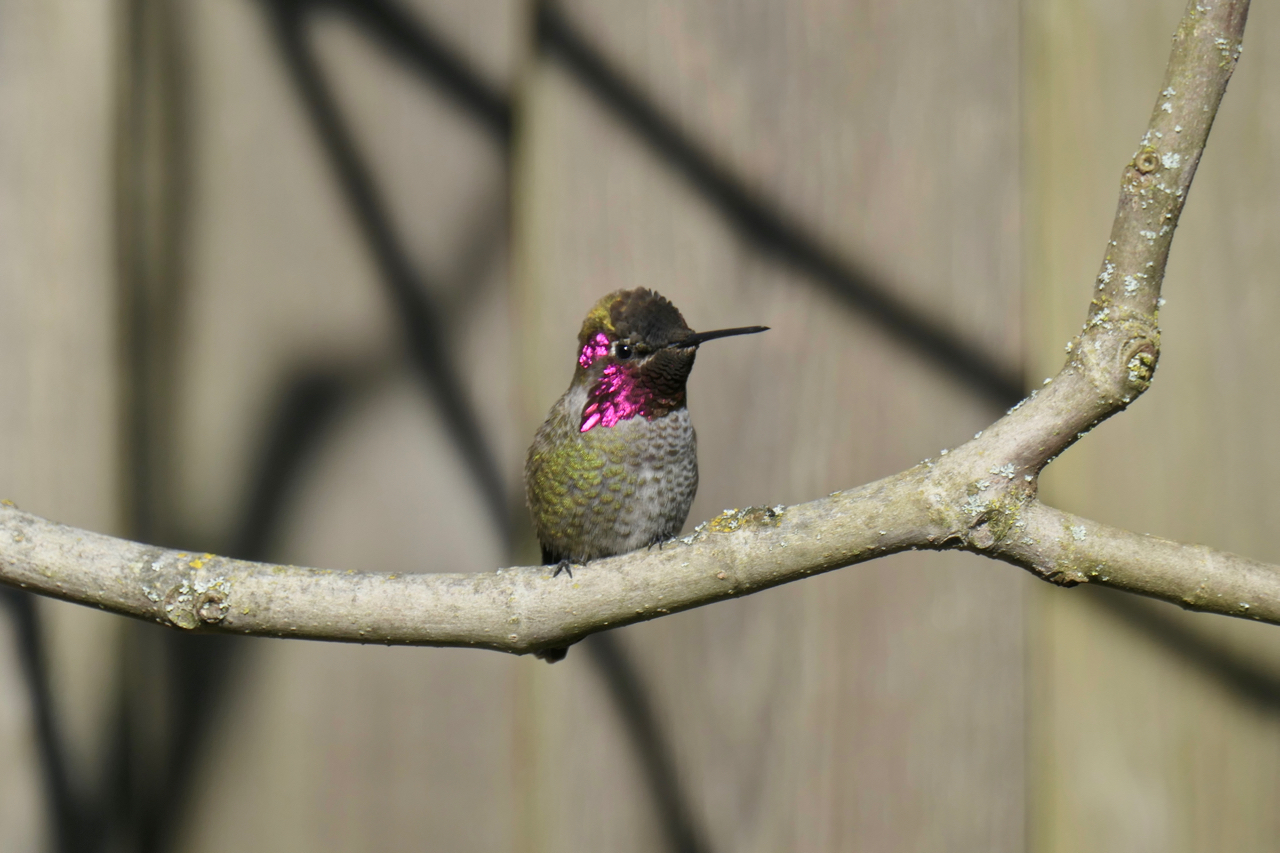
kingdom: Animalia
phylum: Chordata
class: Aves
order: Apodiformes
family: Trochilidae
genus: Calypte
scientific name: Calypte anna
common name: Anna's hummingbird
